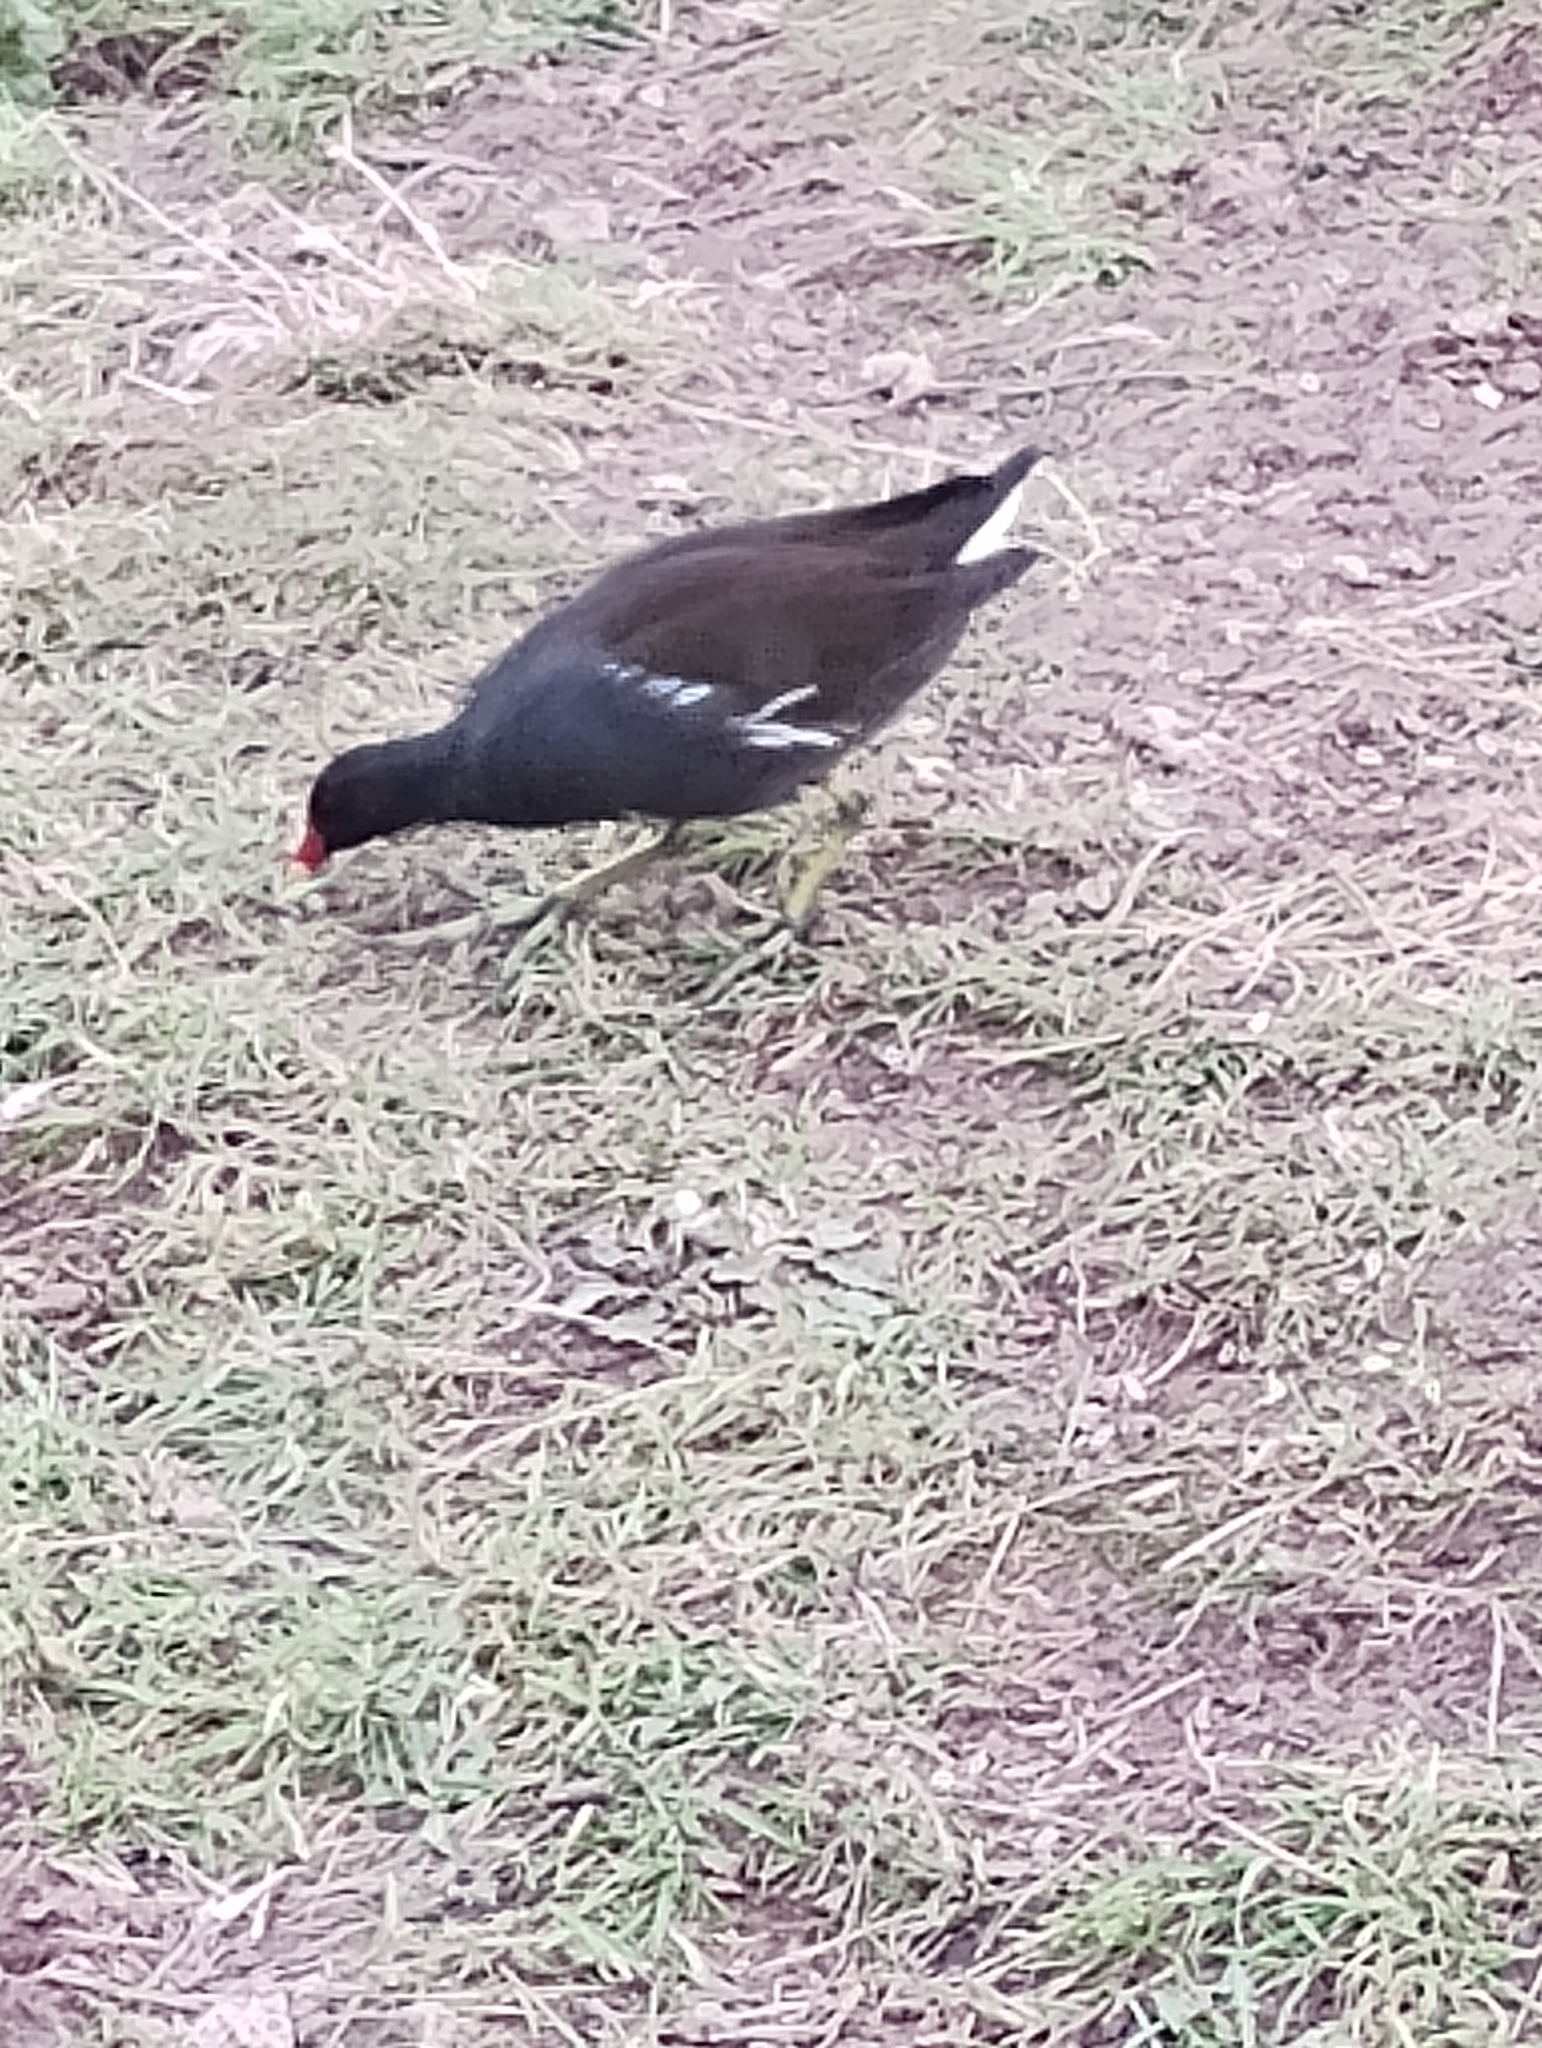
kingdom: Animalia
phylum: Chordata
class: Aves
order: Gruiformes
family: Rallidae
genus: Gallinula
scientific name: Gallinula chloropus
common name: Common moorhen
